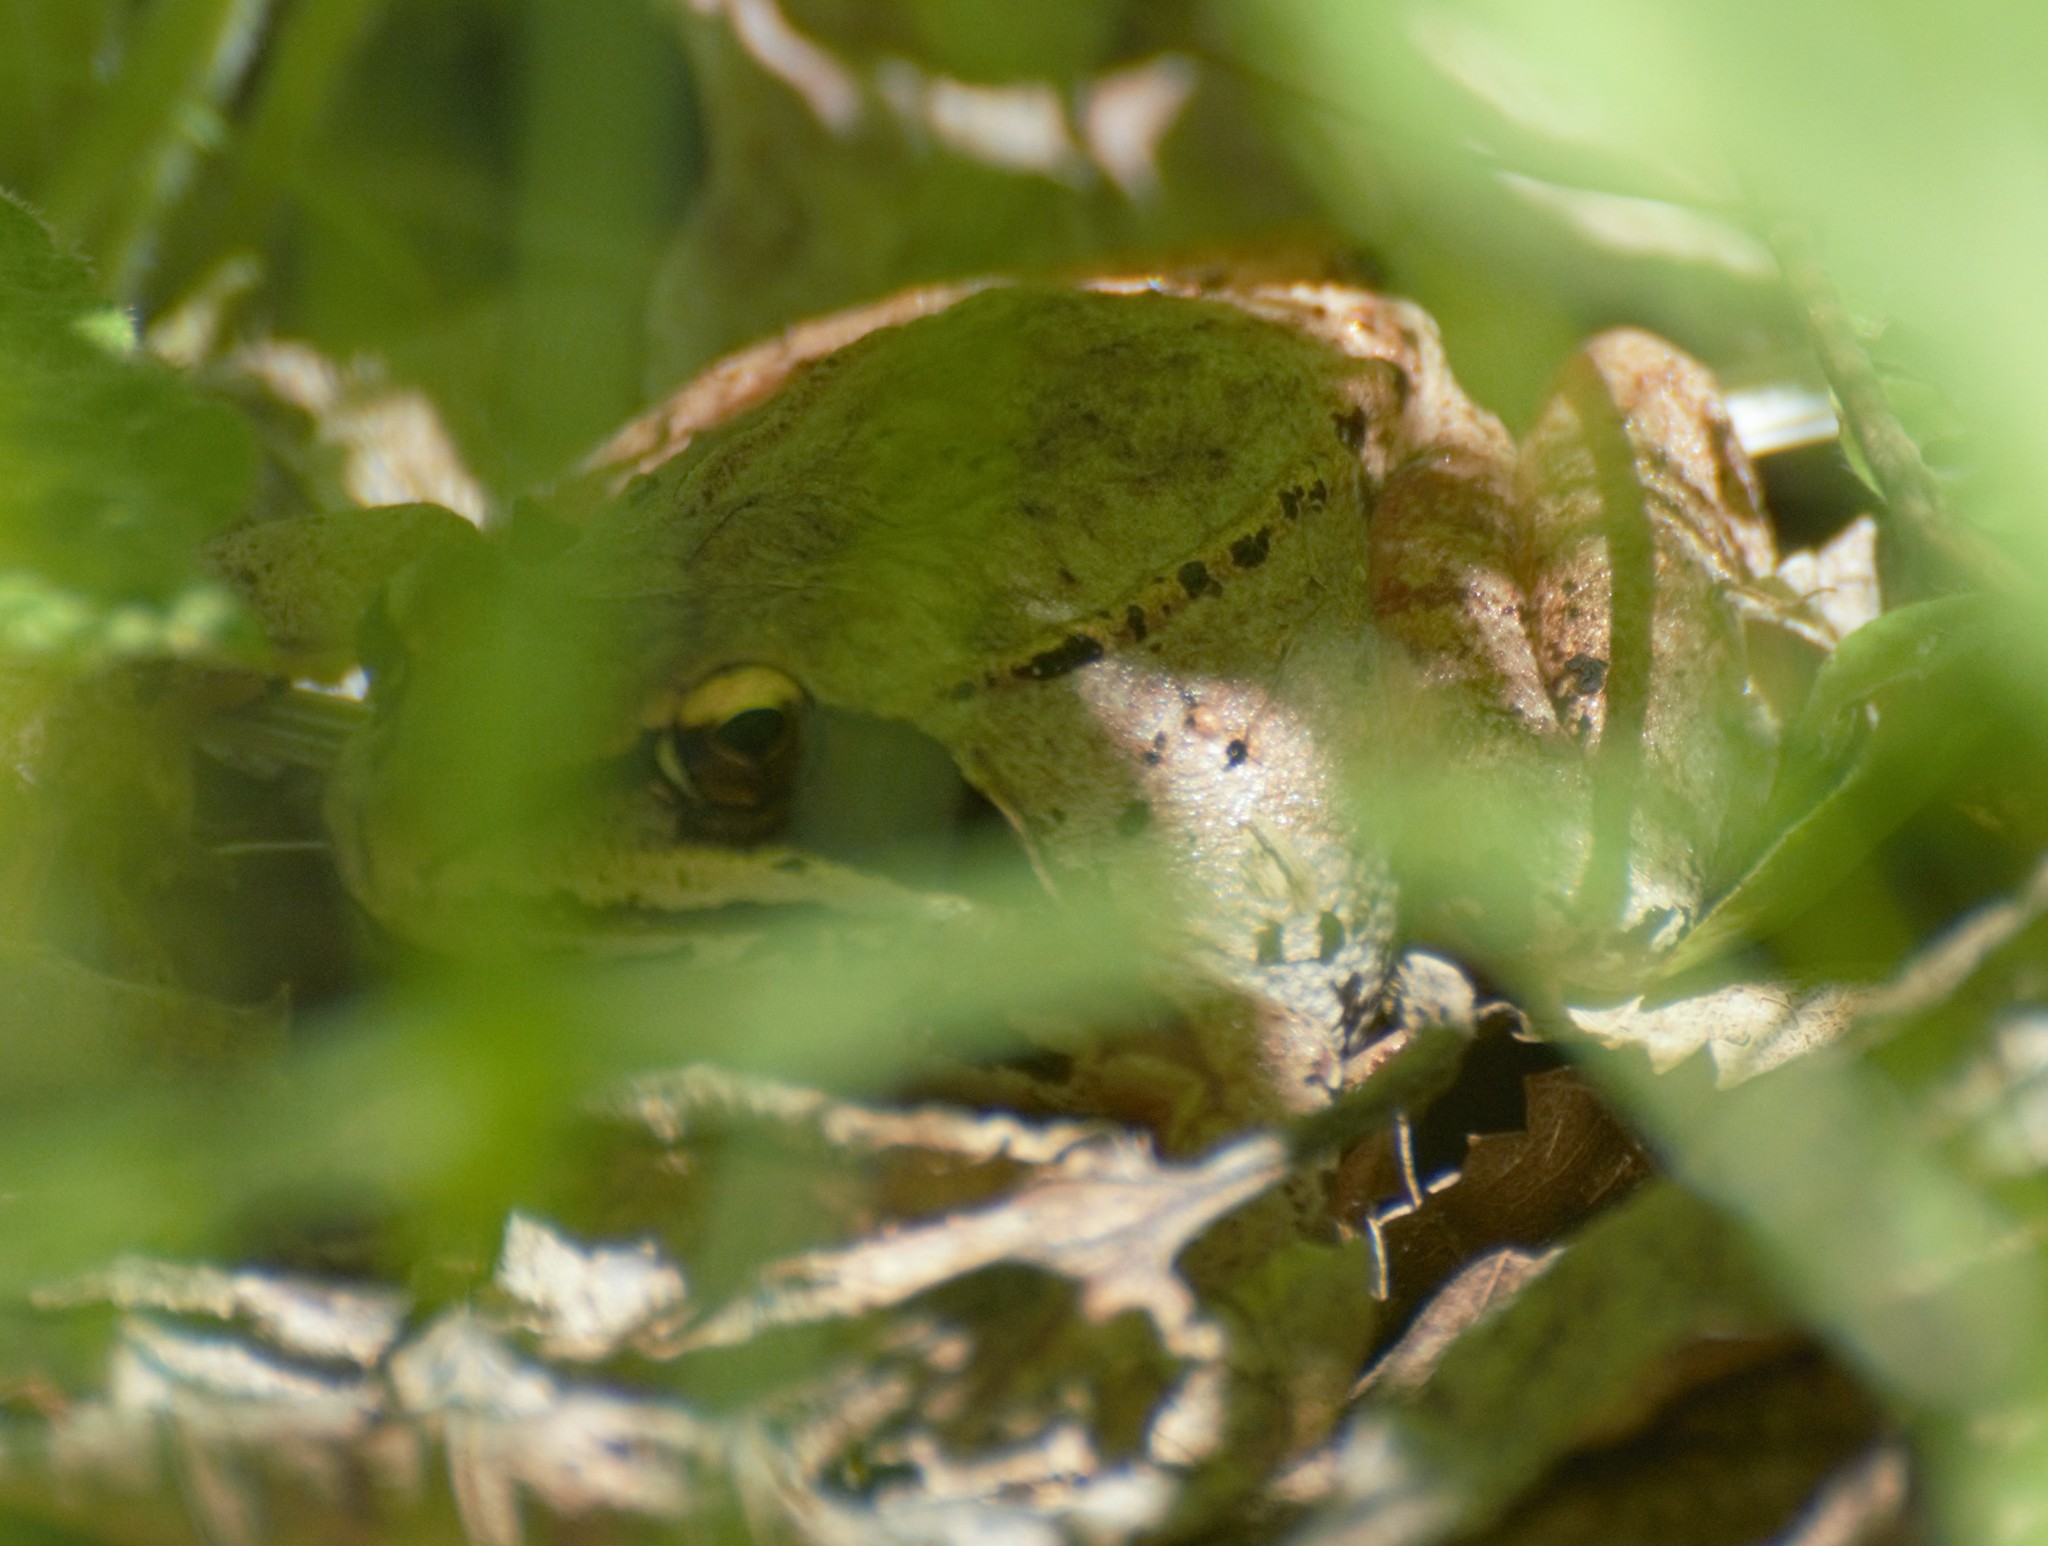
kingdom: Animalia
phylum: Chordata
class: Amphibia
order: Anura
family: Ranidae
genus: Lithobates
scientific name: Lithobates sylvaticus
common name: Wood frog
